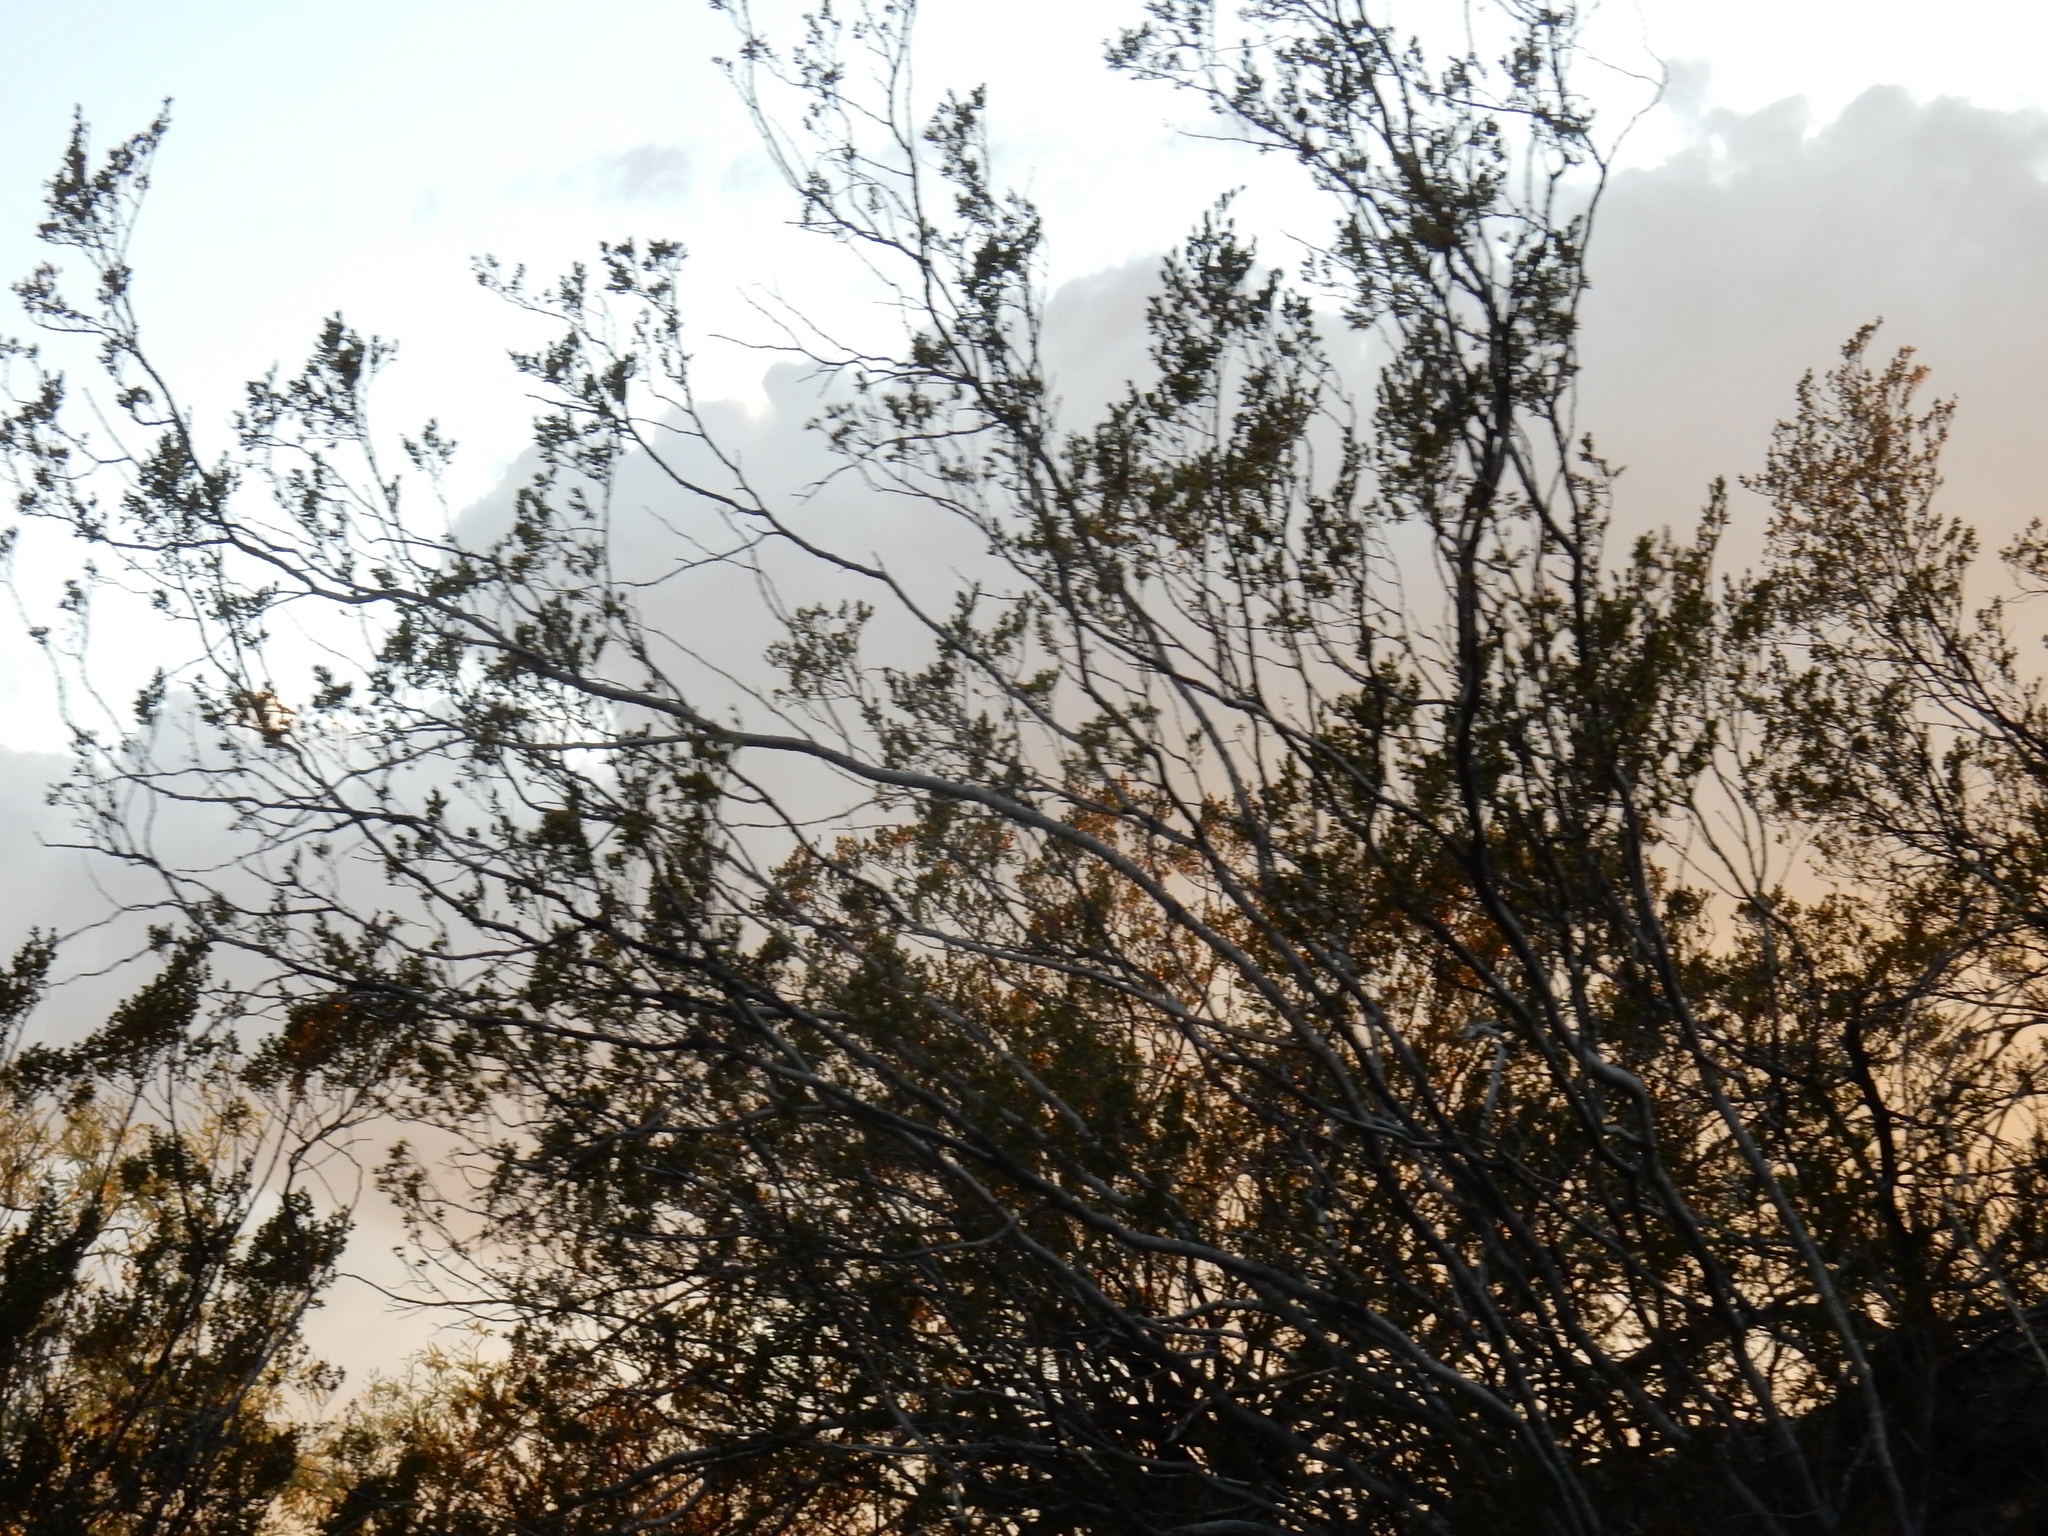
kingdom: Plantae
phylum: Tracheophyta
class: Magnoliopsida
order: Zygophyllales
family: Zygophyllaceae
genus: Larrea
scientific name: Larrea tridentata
